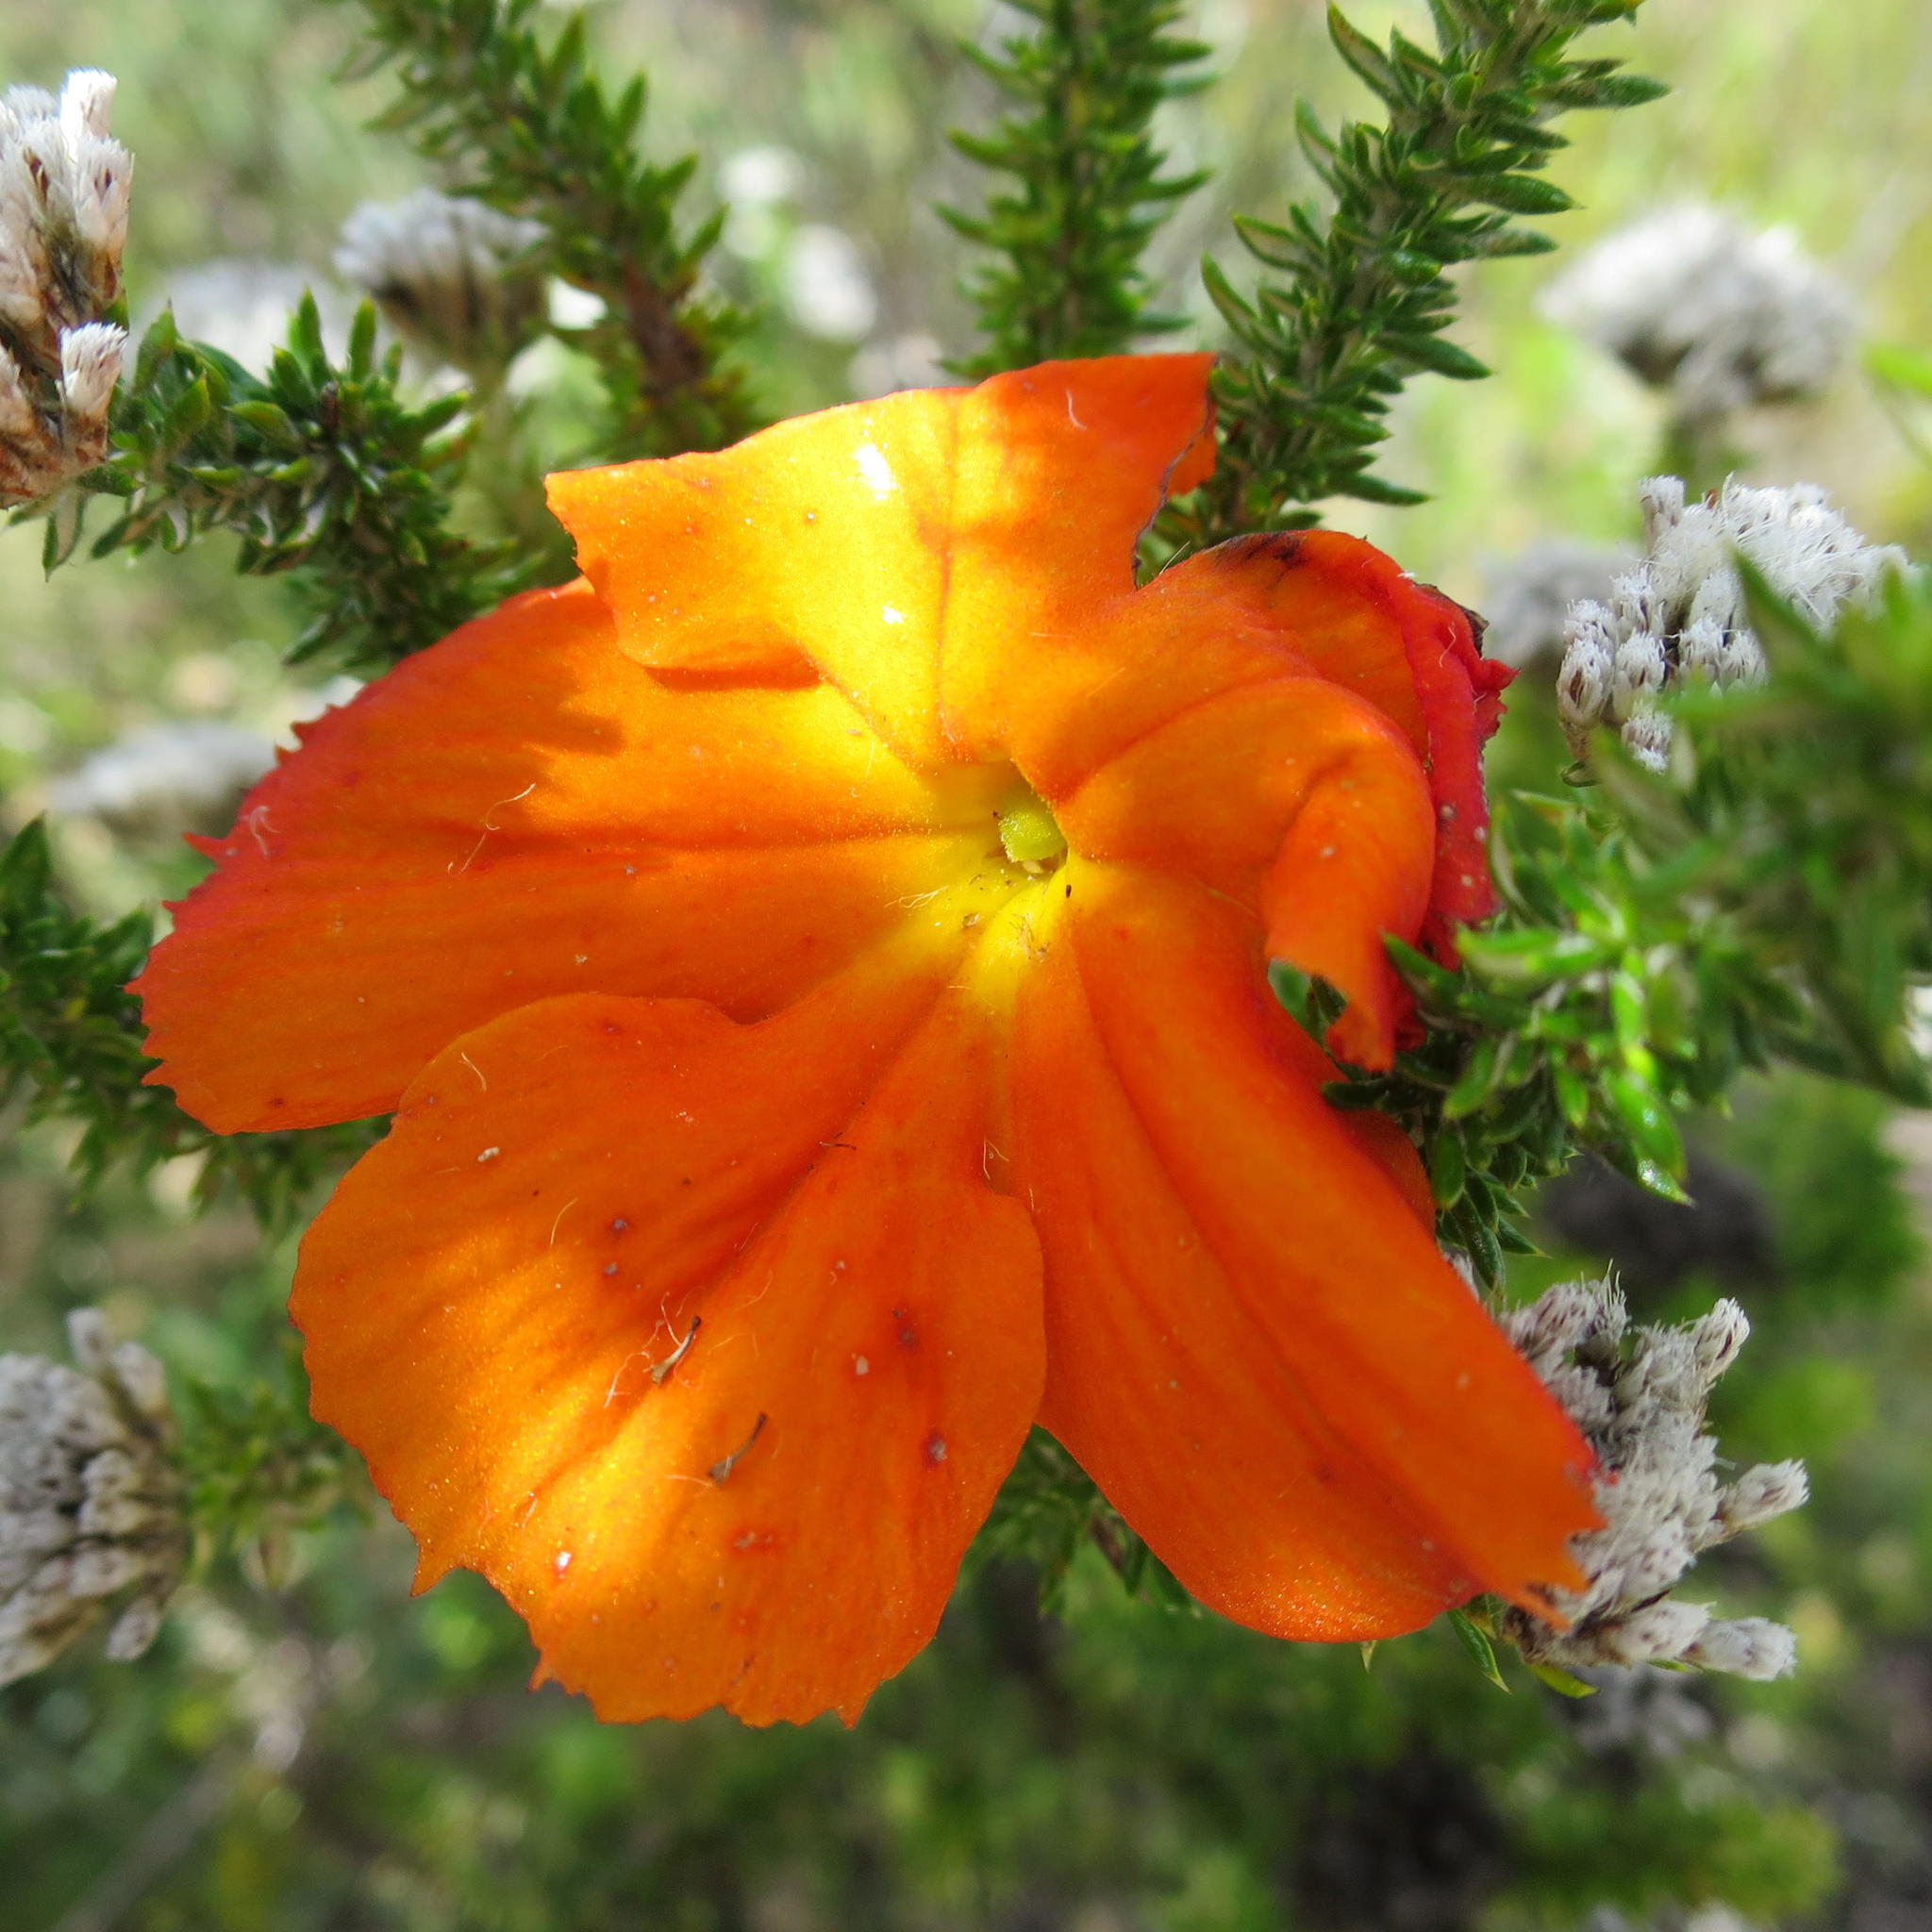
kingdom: Plantae
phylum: Tracheophyta
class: Magnoliopsida
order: Lamiales
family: Orobanchaceae
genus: Harveya
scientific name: Harveya stenosiphon
